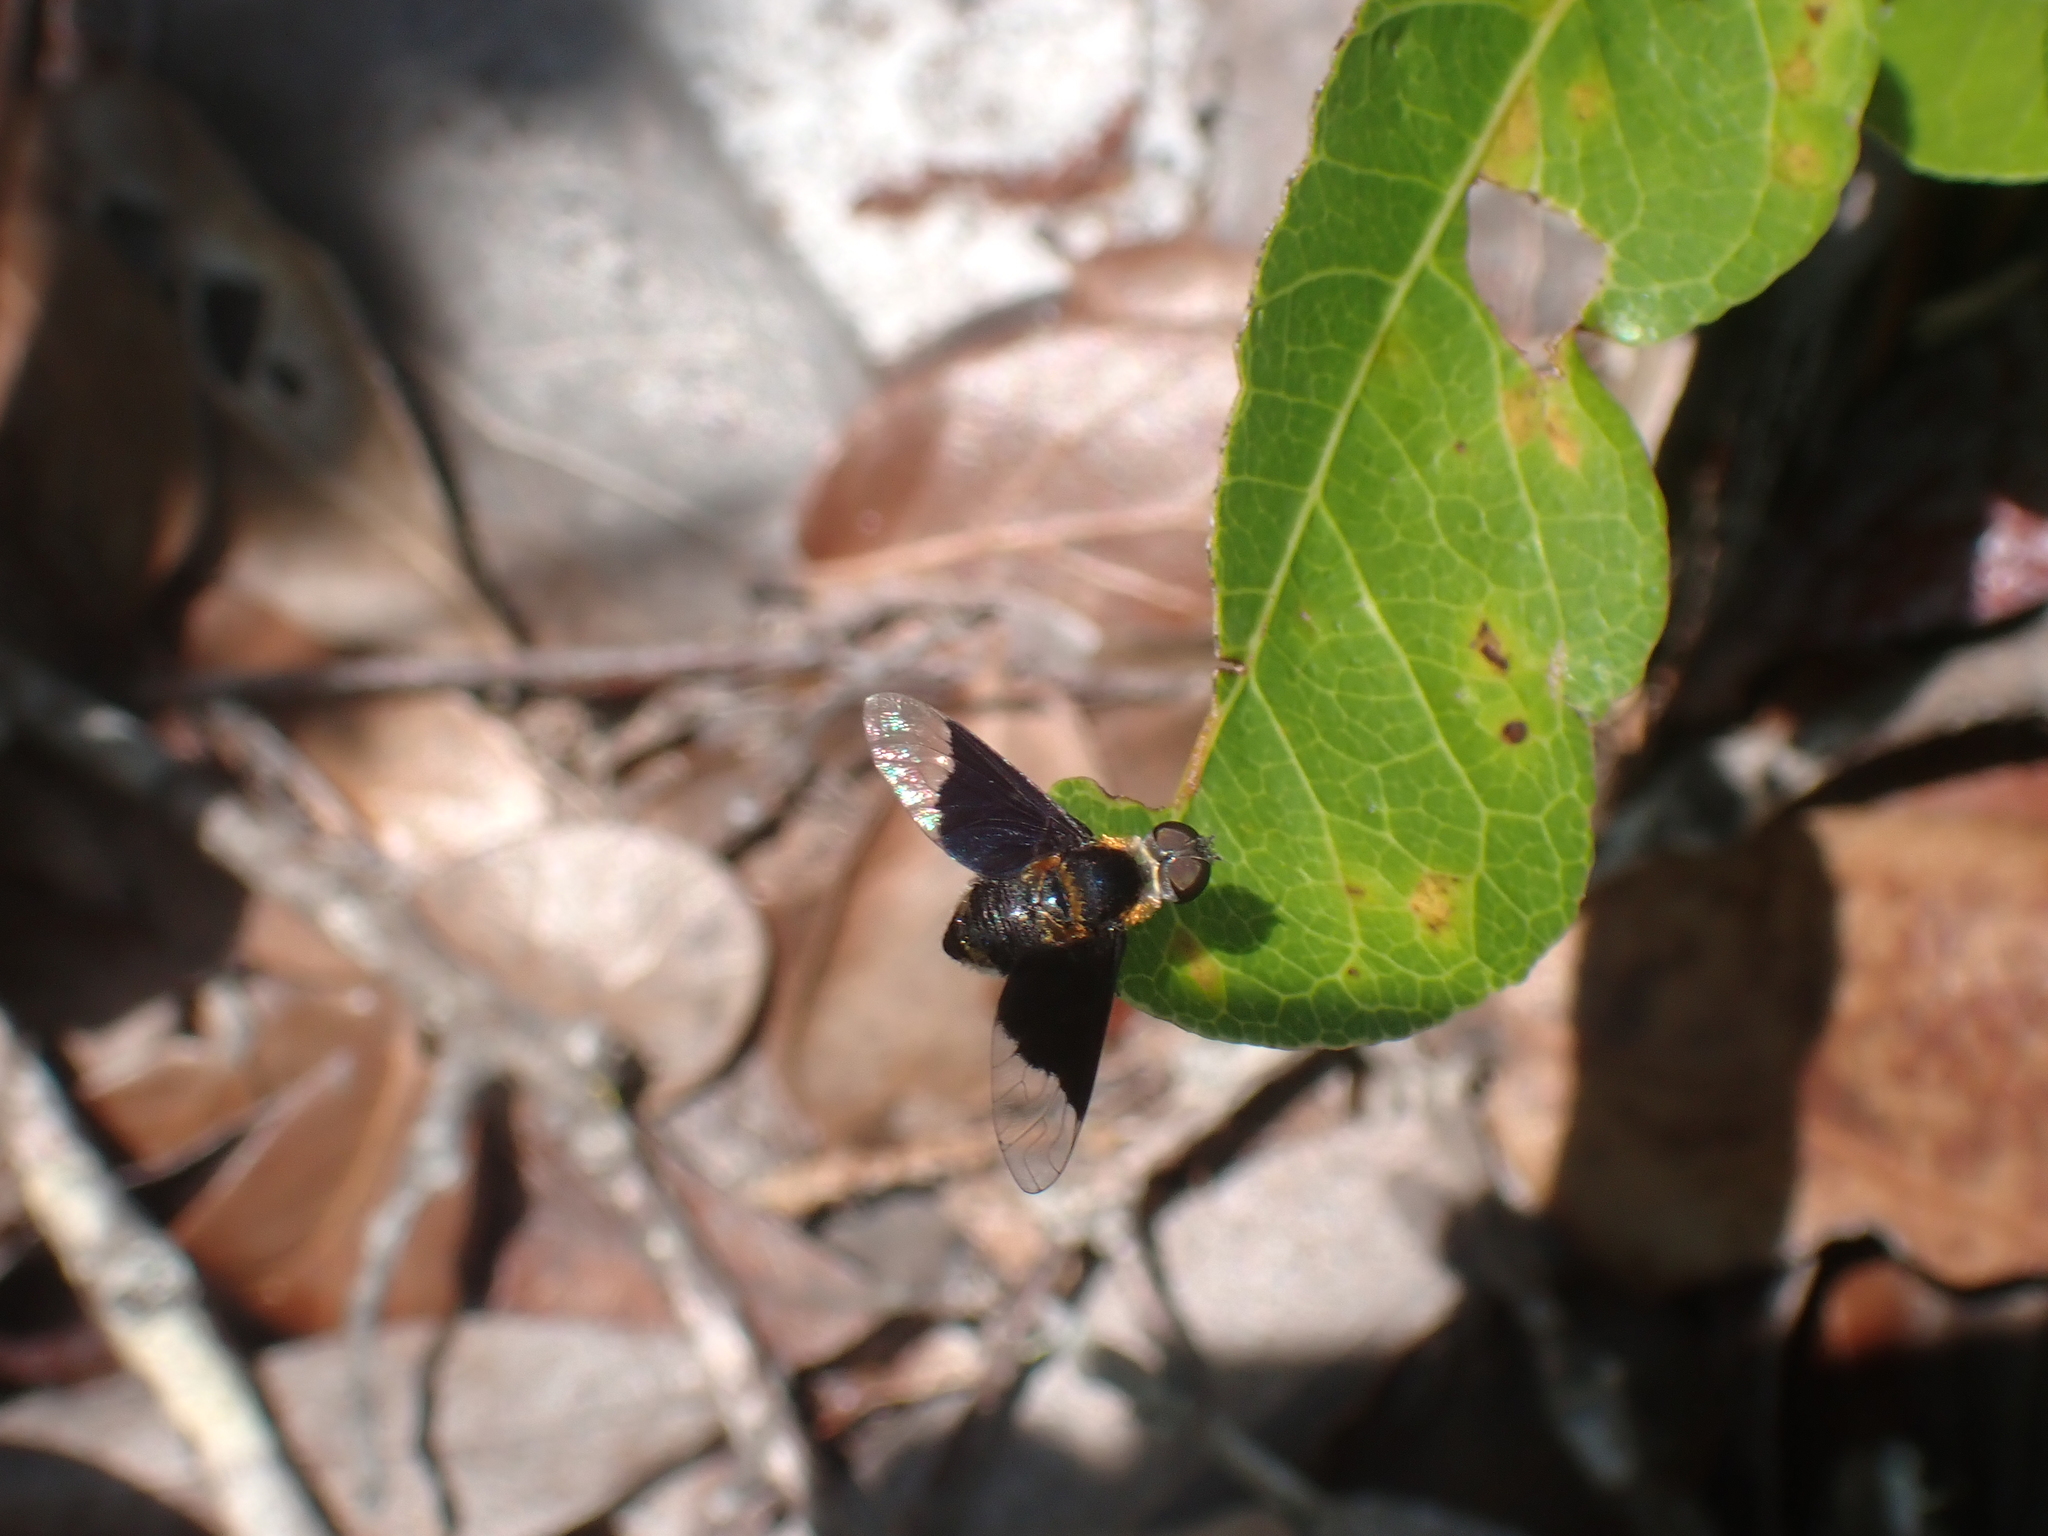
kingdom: Animalia
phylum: Arthropoda
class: Insecta
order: Diptera
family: Bombyliidae
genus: Ins
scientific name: Ins celeris
